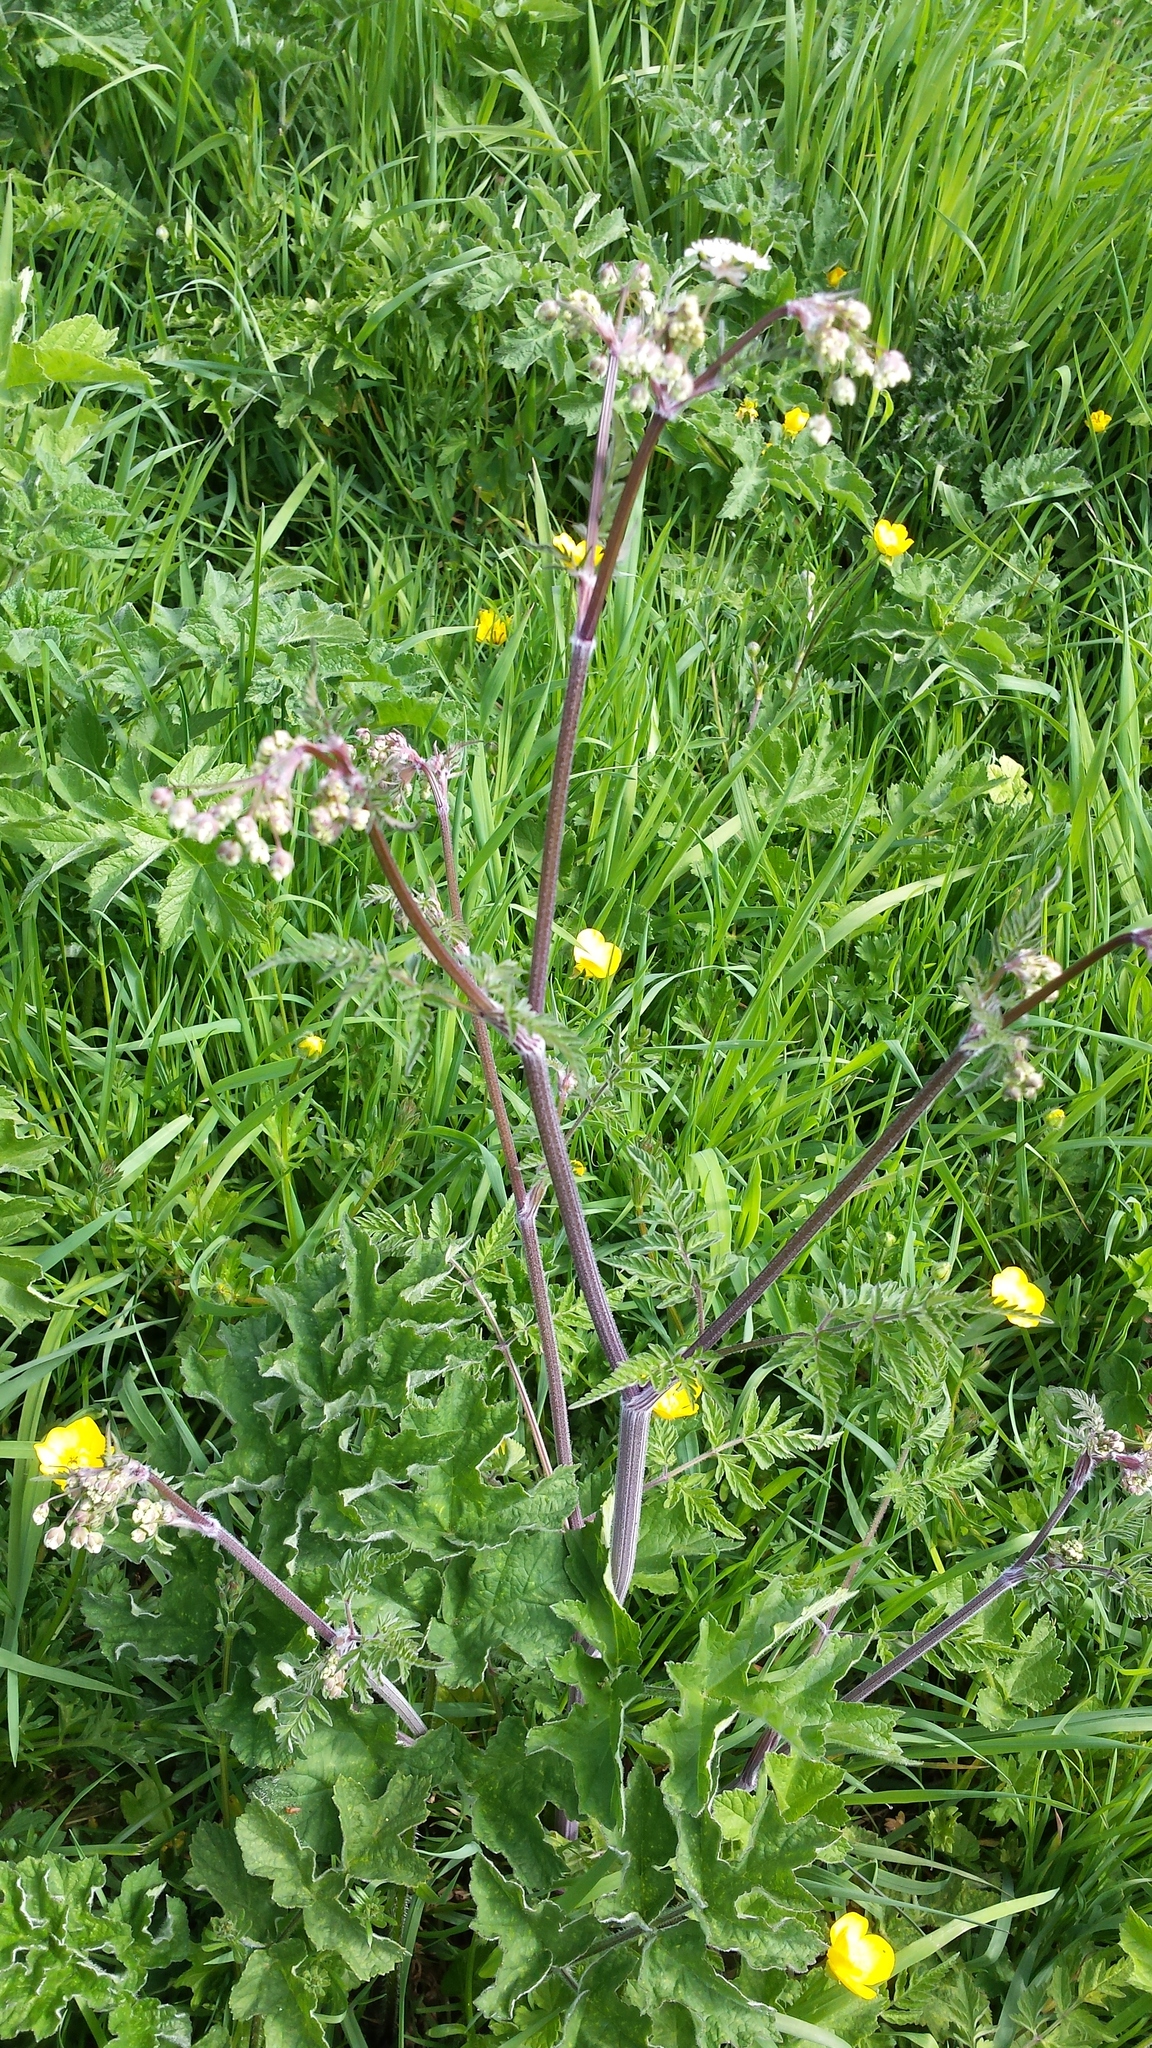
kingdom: Plantae
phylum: Tracheophyta
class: Magnoliopsida
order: Apiales
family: Apiaceae
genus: Heracleum
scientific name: Heracleum sphondylium
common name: Hogweed
